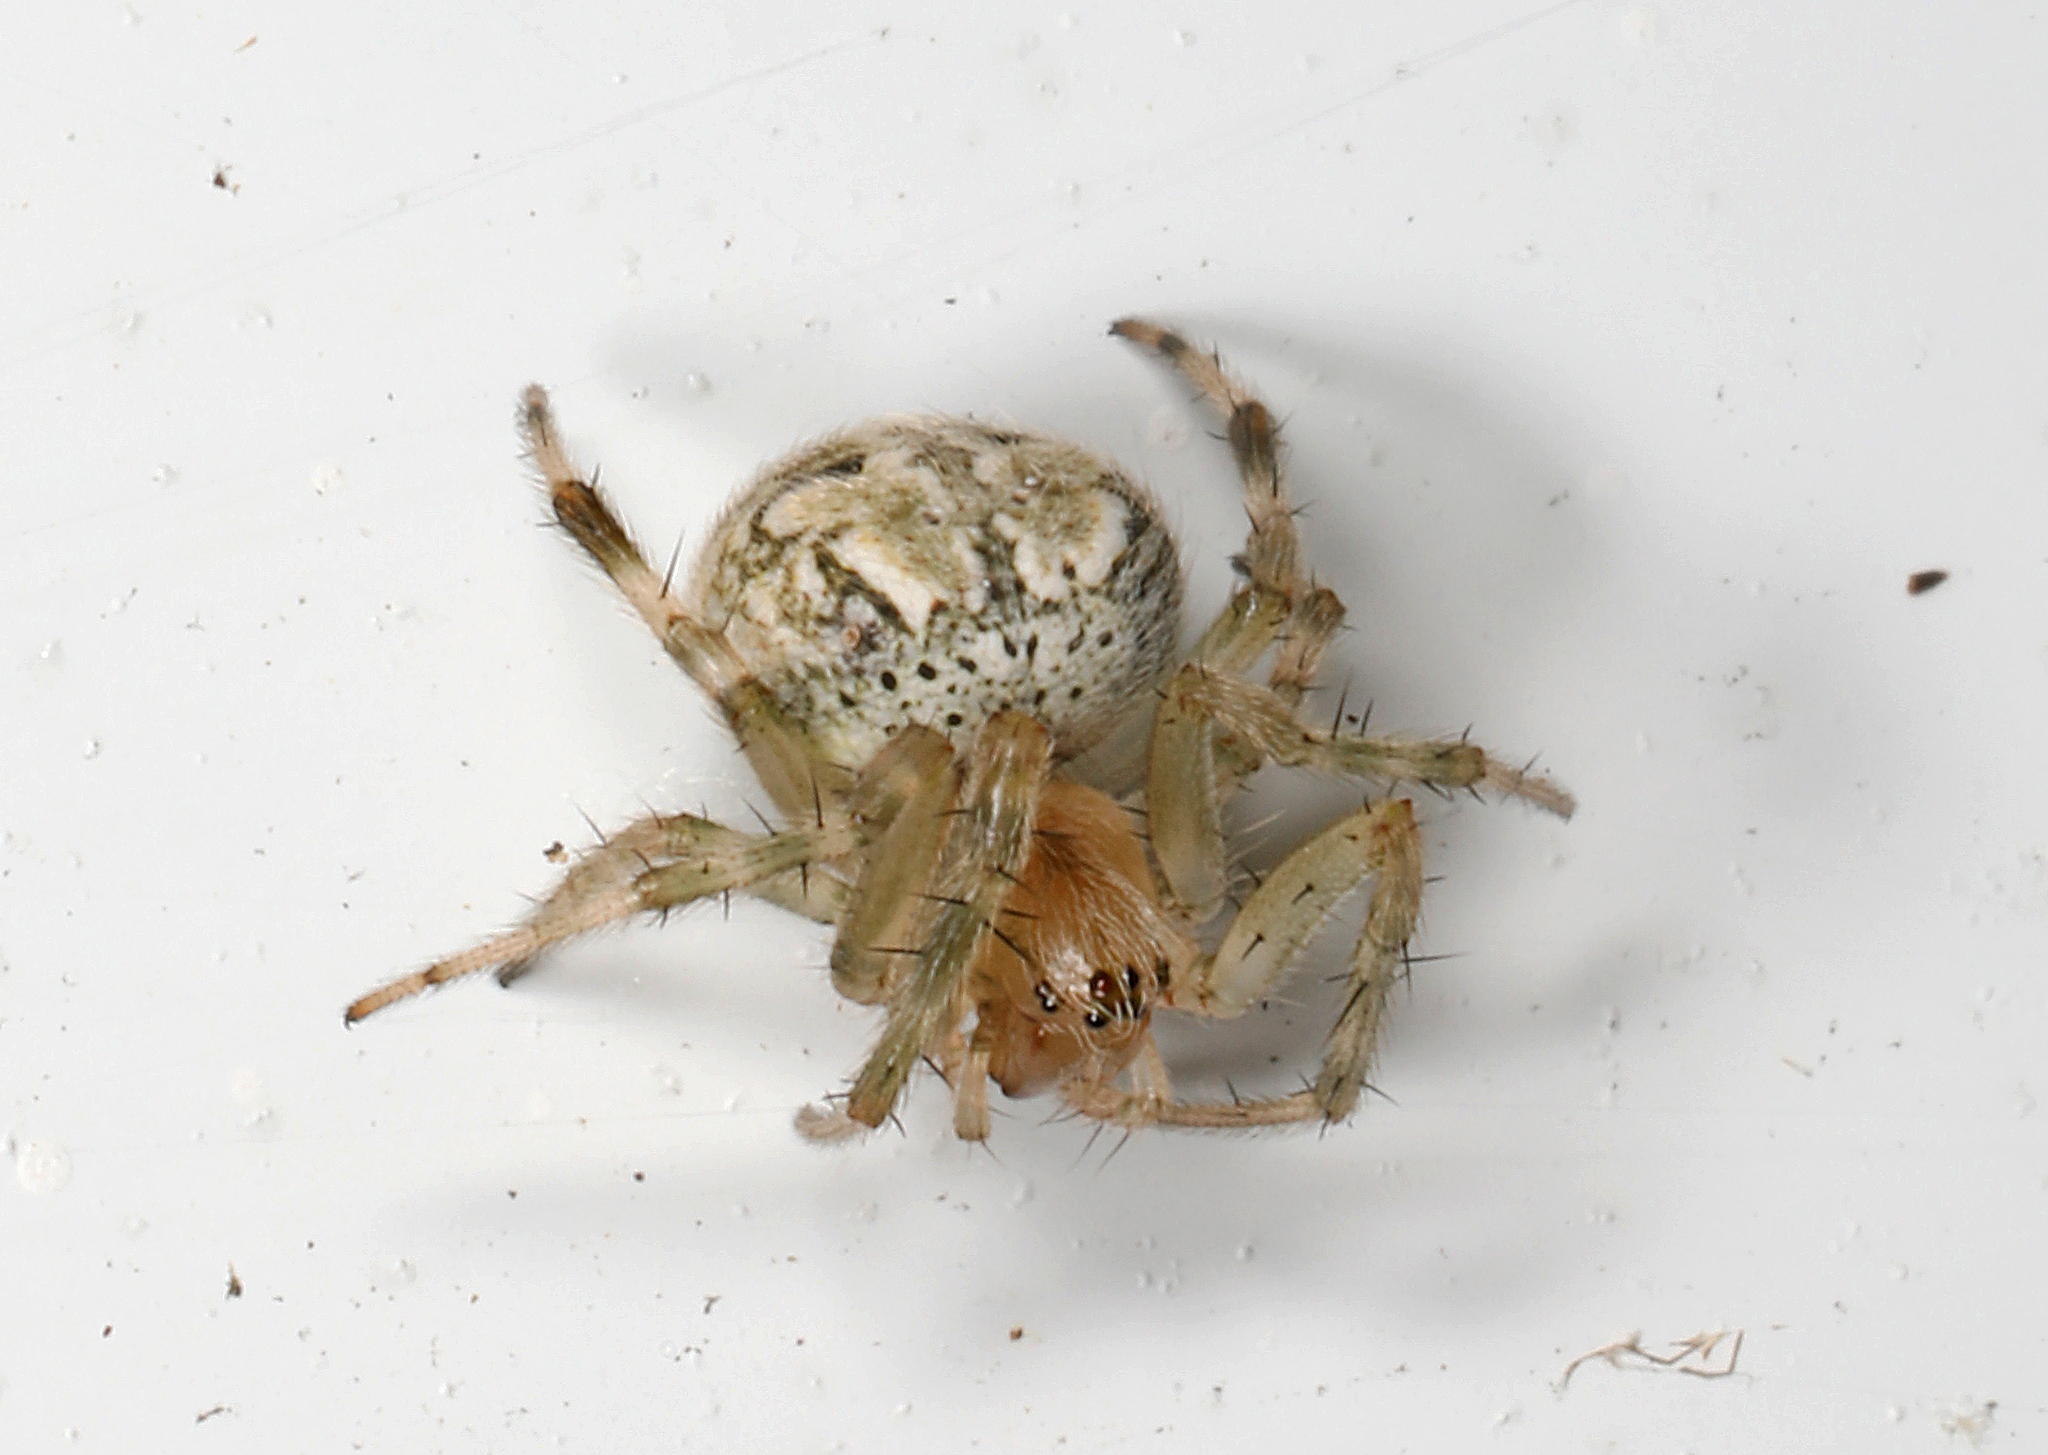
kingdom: Animalia
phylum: Arthropoda
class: Arachnida
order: Araneae
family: Araneidae
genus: Araneus
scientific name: Araneus pegnia
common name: Orb weavers
